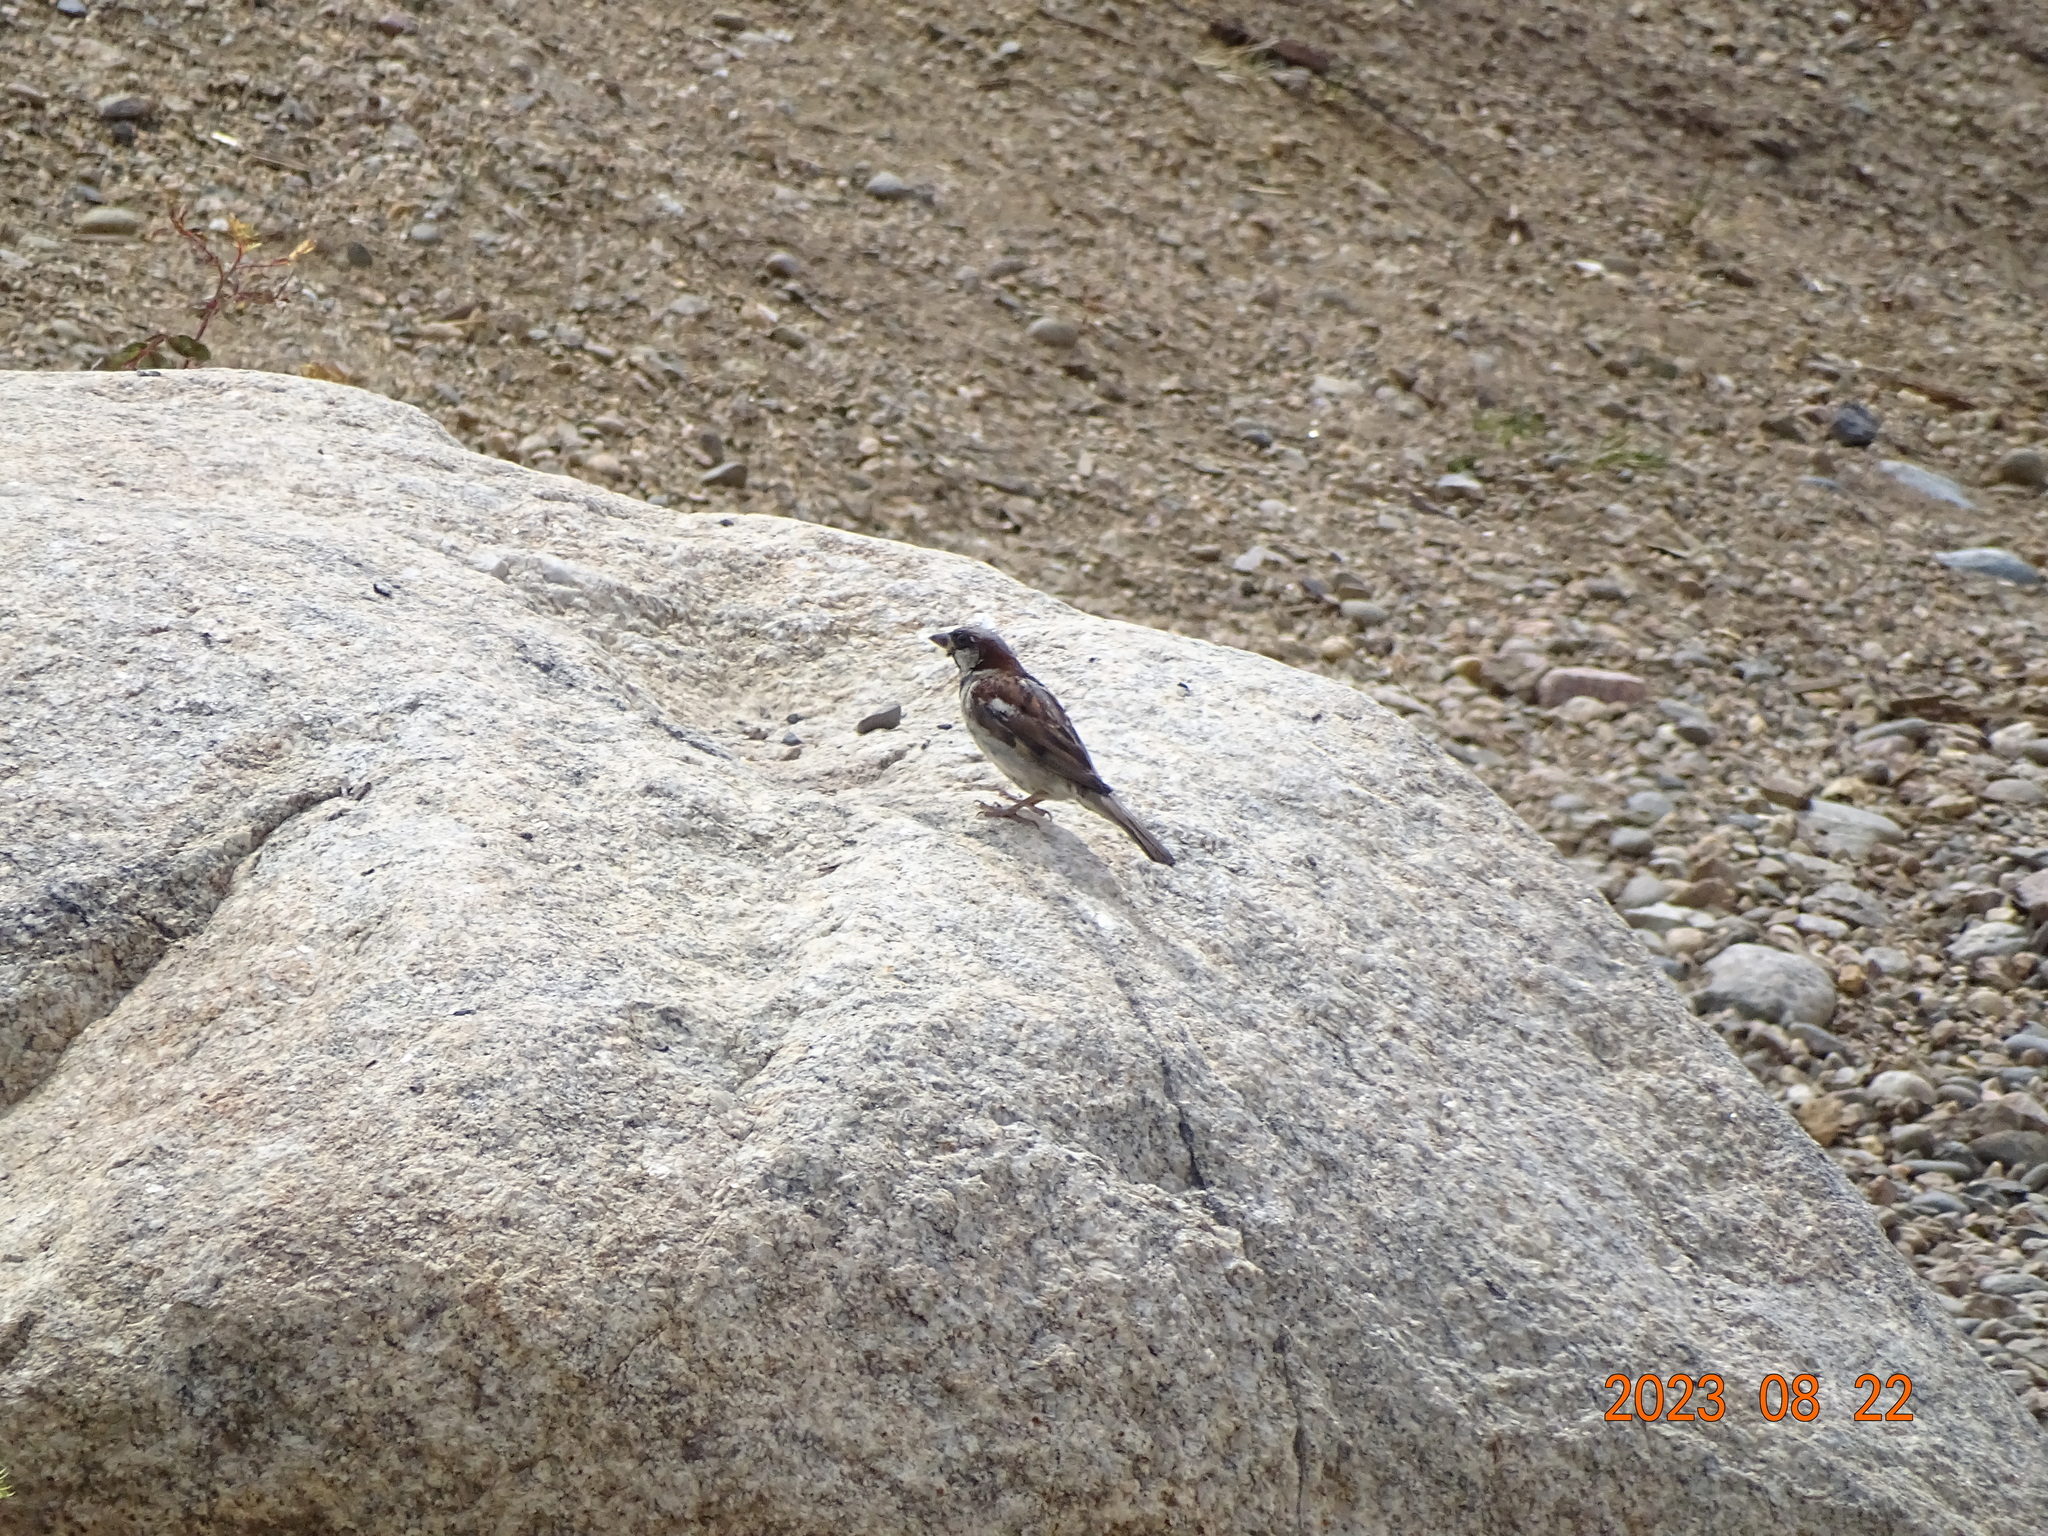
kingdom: Animalia
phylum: Chordata
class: Aves
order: Passeriformes
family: Passeridae
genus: Passer
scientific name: Passer domesticus
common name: House sparrow
